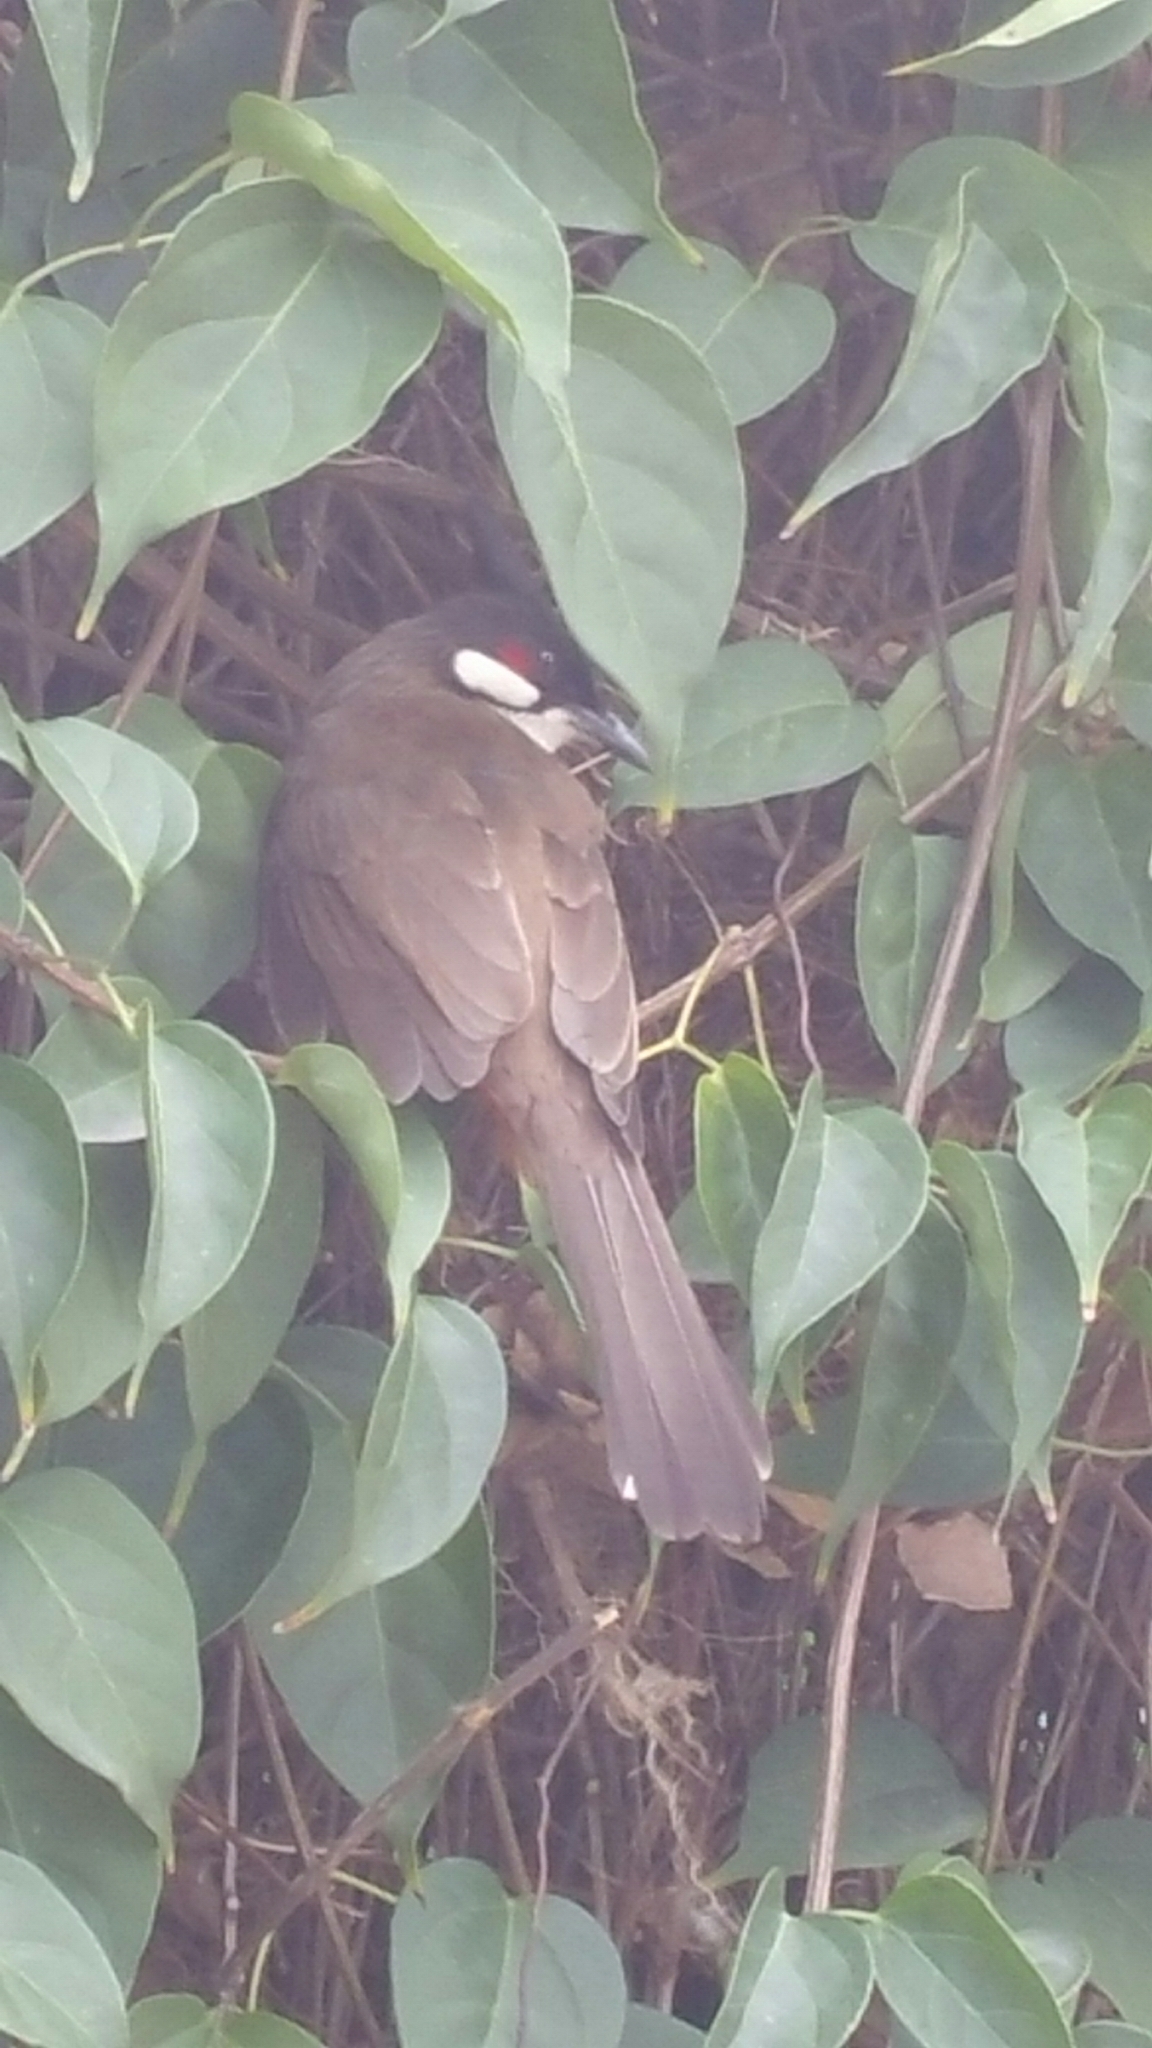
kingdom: Animalia
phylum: Chordata
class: Aves
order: Passeriformes
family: Pycnonotidae
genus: Pycnonotus
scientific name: Pycnonotus jocosus
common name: Red-whiskered bulbul
